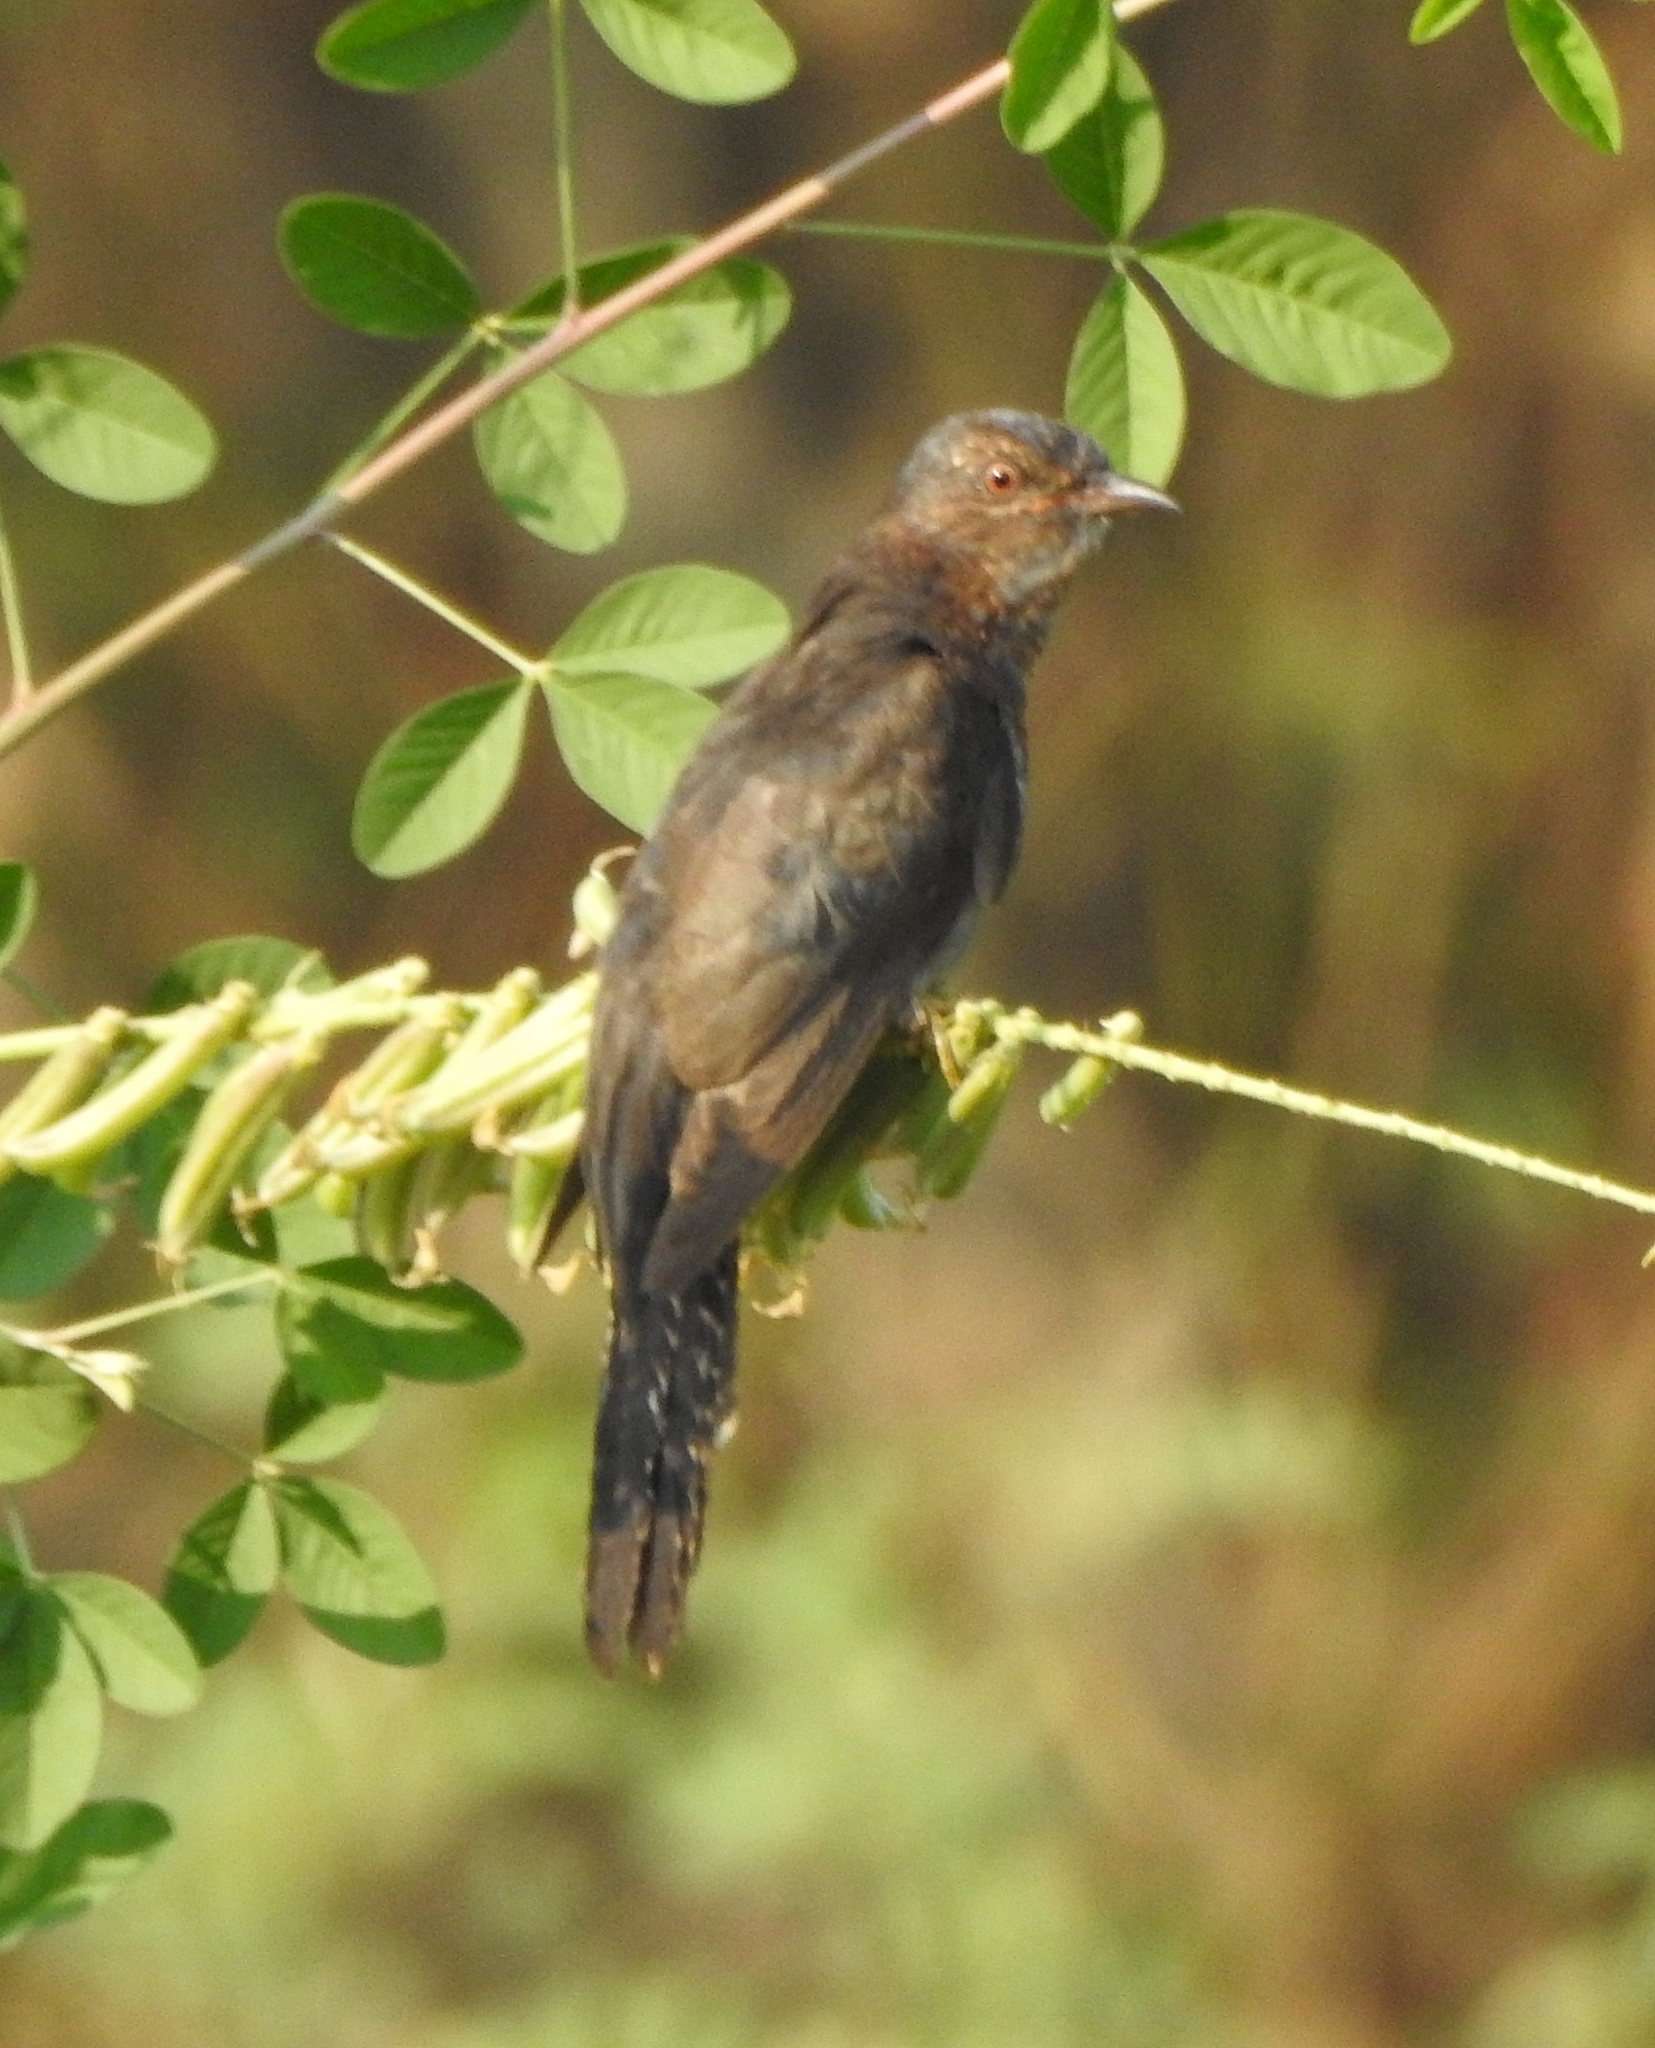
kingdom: Animalia
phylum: Chordata
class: Aves
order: Cuculiformes
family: Cuculidae
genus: Cacomantis
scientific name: Cacomantis passerinus
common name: Grey-bellied cuckoo
